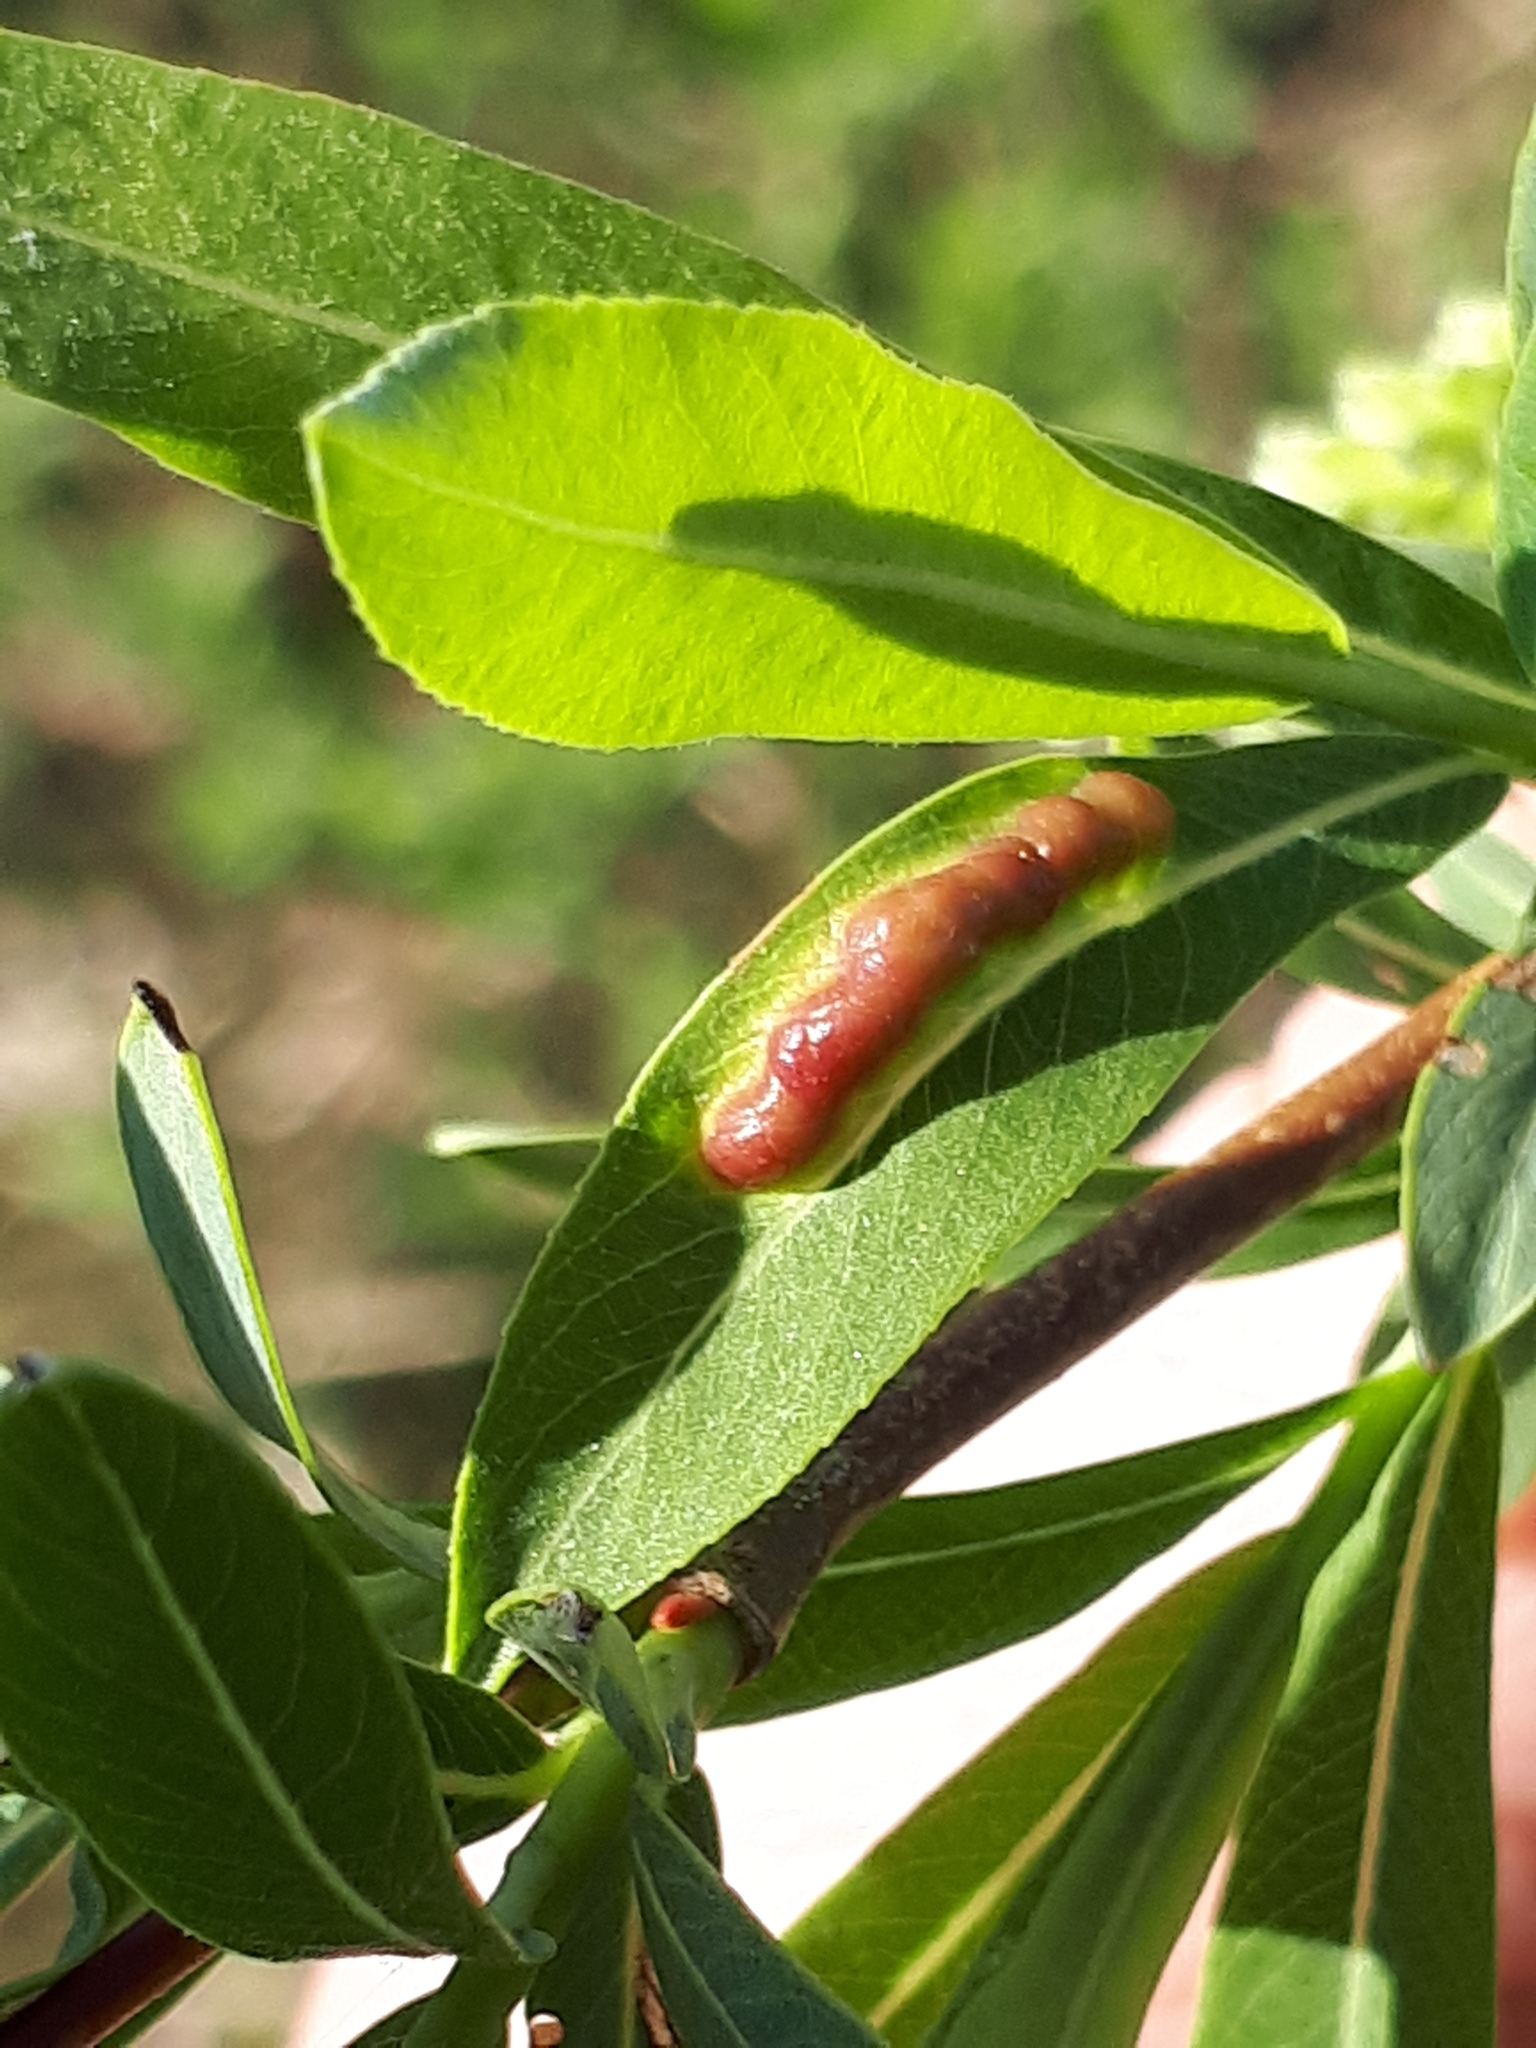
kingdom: Animalia
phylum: Arthropoda
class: Insecta
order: Hymenoptera
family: Tenthredinidae
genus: Pontania
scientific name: Pontania virilis
